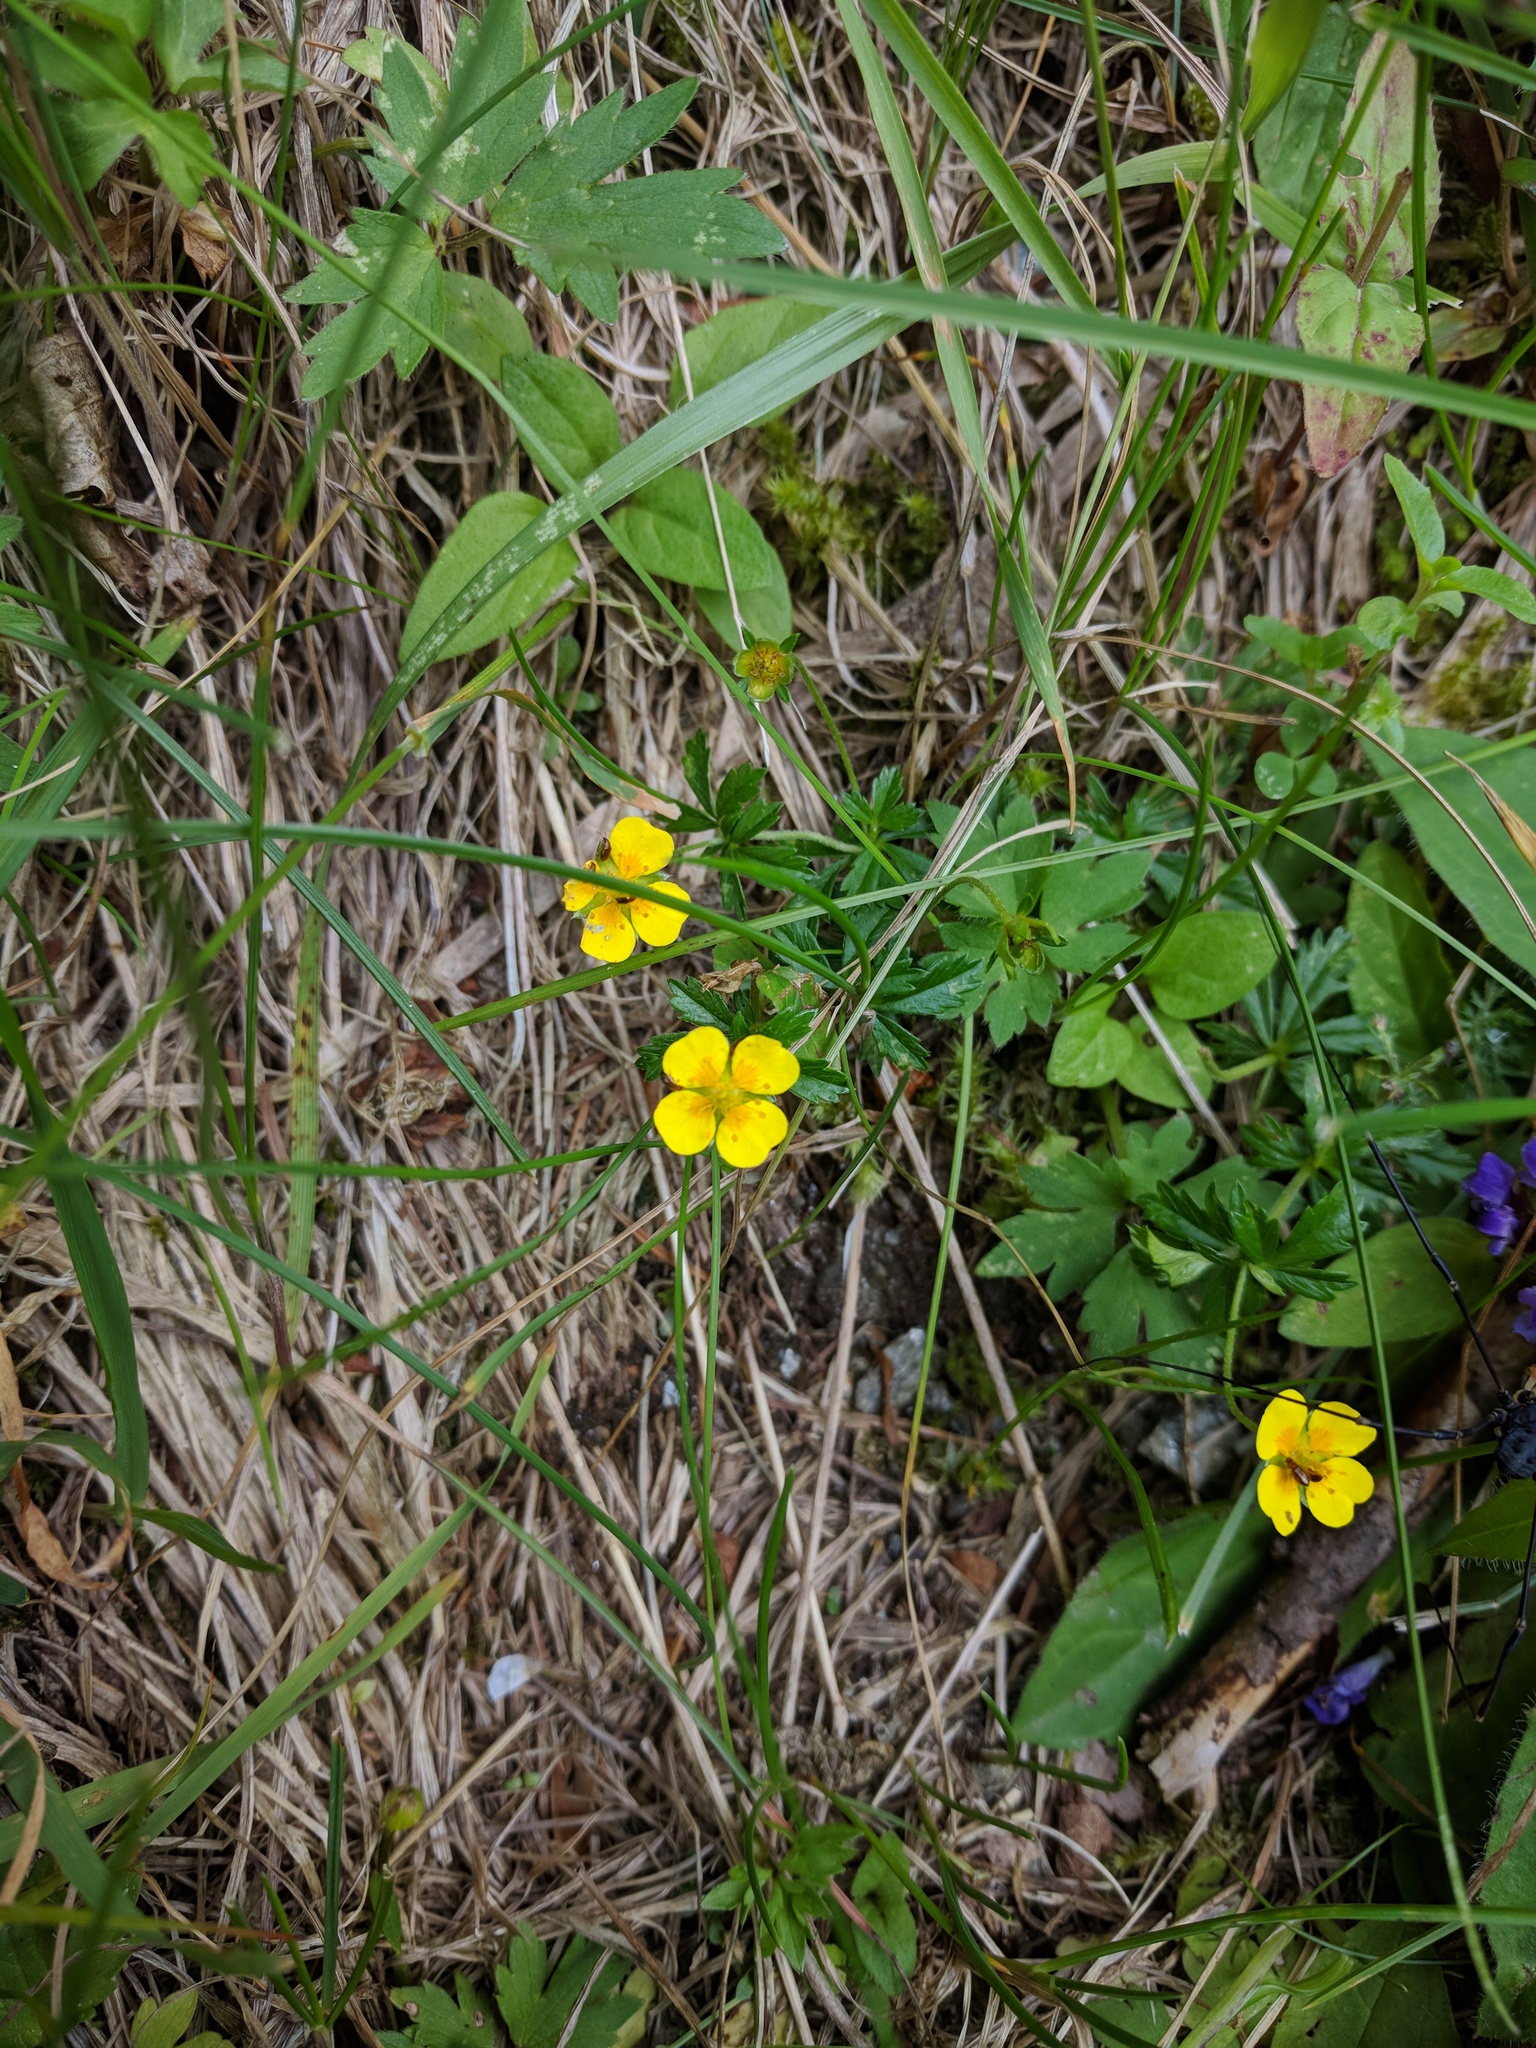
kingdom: Plantae
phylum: Tracheophyta
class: Magnoliopsida
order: Rosales
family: Rosaceae
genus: Potentilla
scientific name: Potentilla erecta
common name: Tormentil
